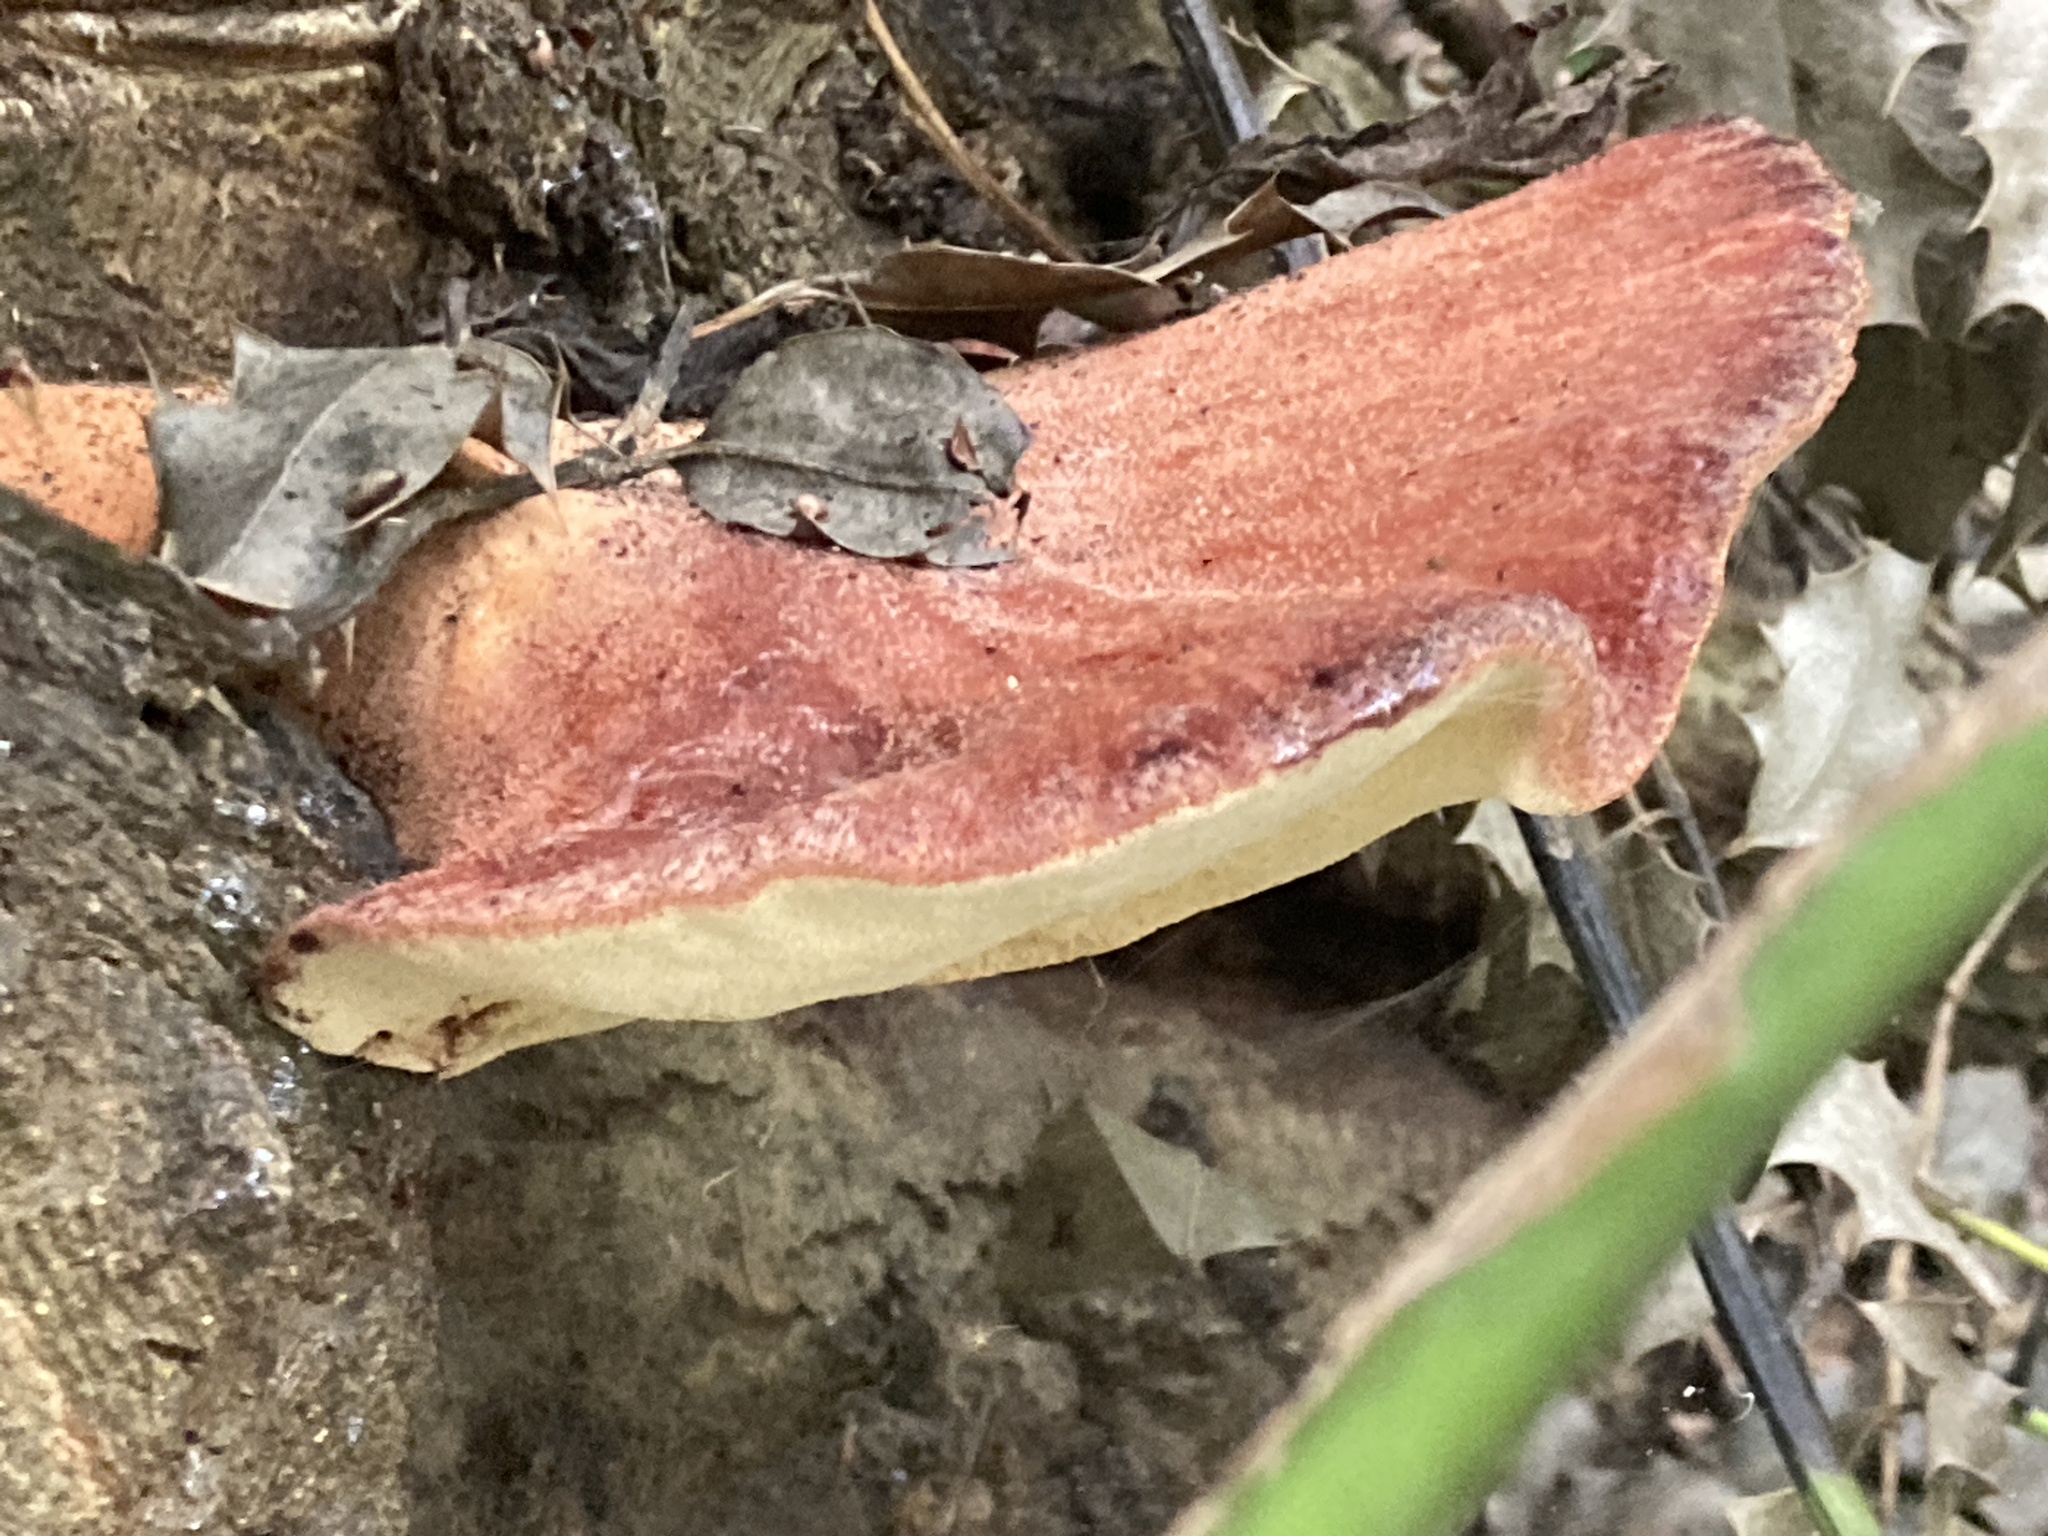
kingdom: Fungi
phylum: Basidiomycota
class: Agaricomycetes
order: Agaricales
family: Fistulinaceae
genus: Fistulina
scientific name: Fistulina hepatica
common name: Beef-steak fungus
